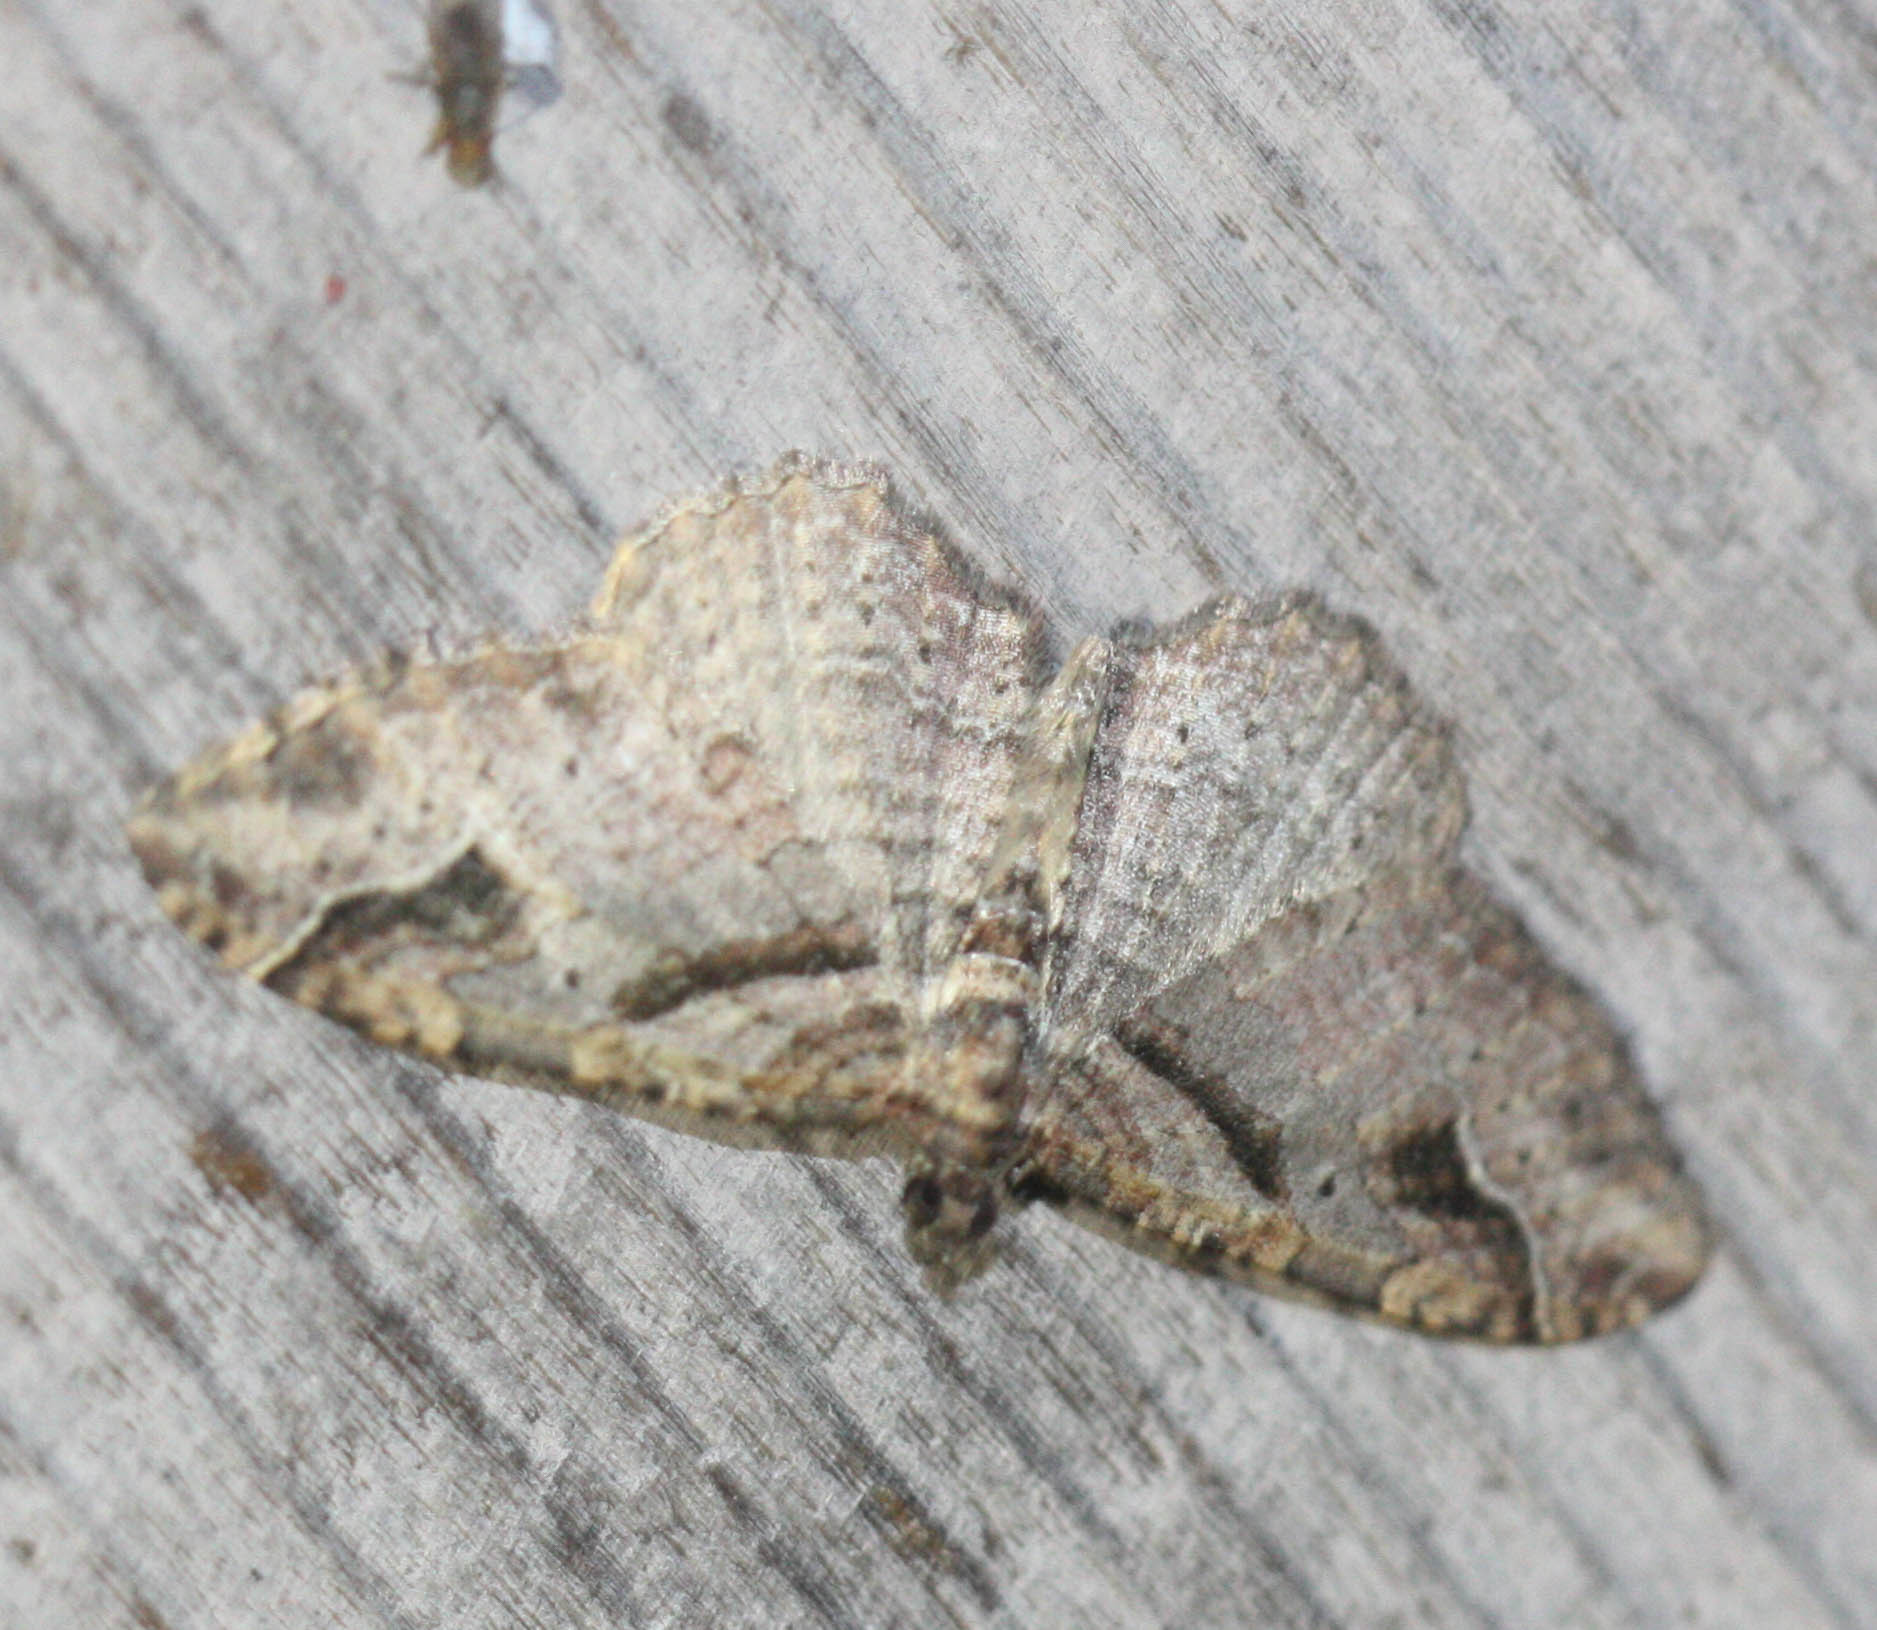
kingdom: Animalia
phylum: Arthropoda
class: Insecta
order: Lepidoptera
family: Geometridae
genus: Costaconvexa
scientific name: Costaconvexa centrostrigaria
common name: Bent-line carpet
